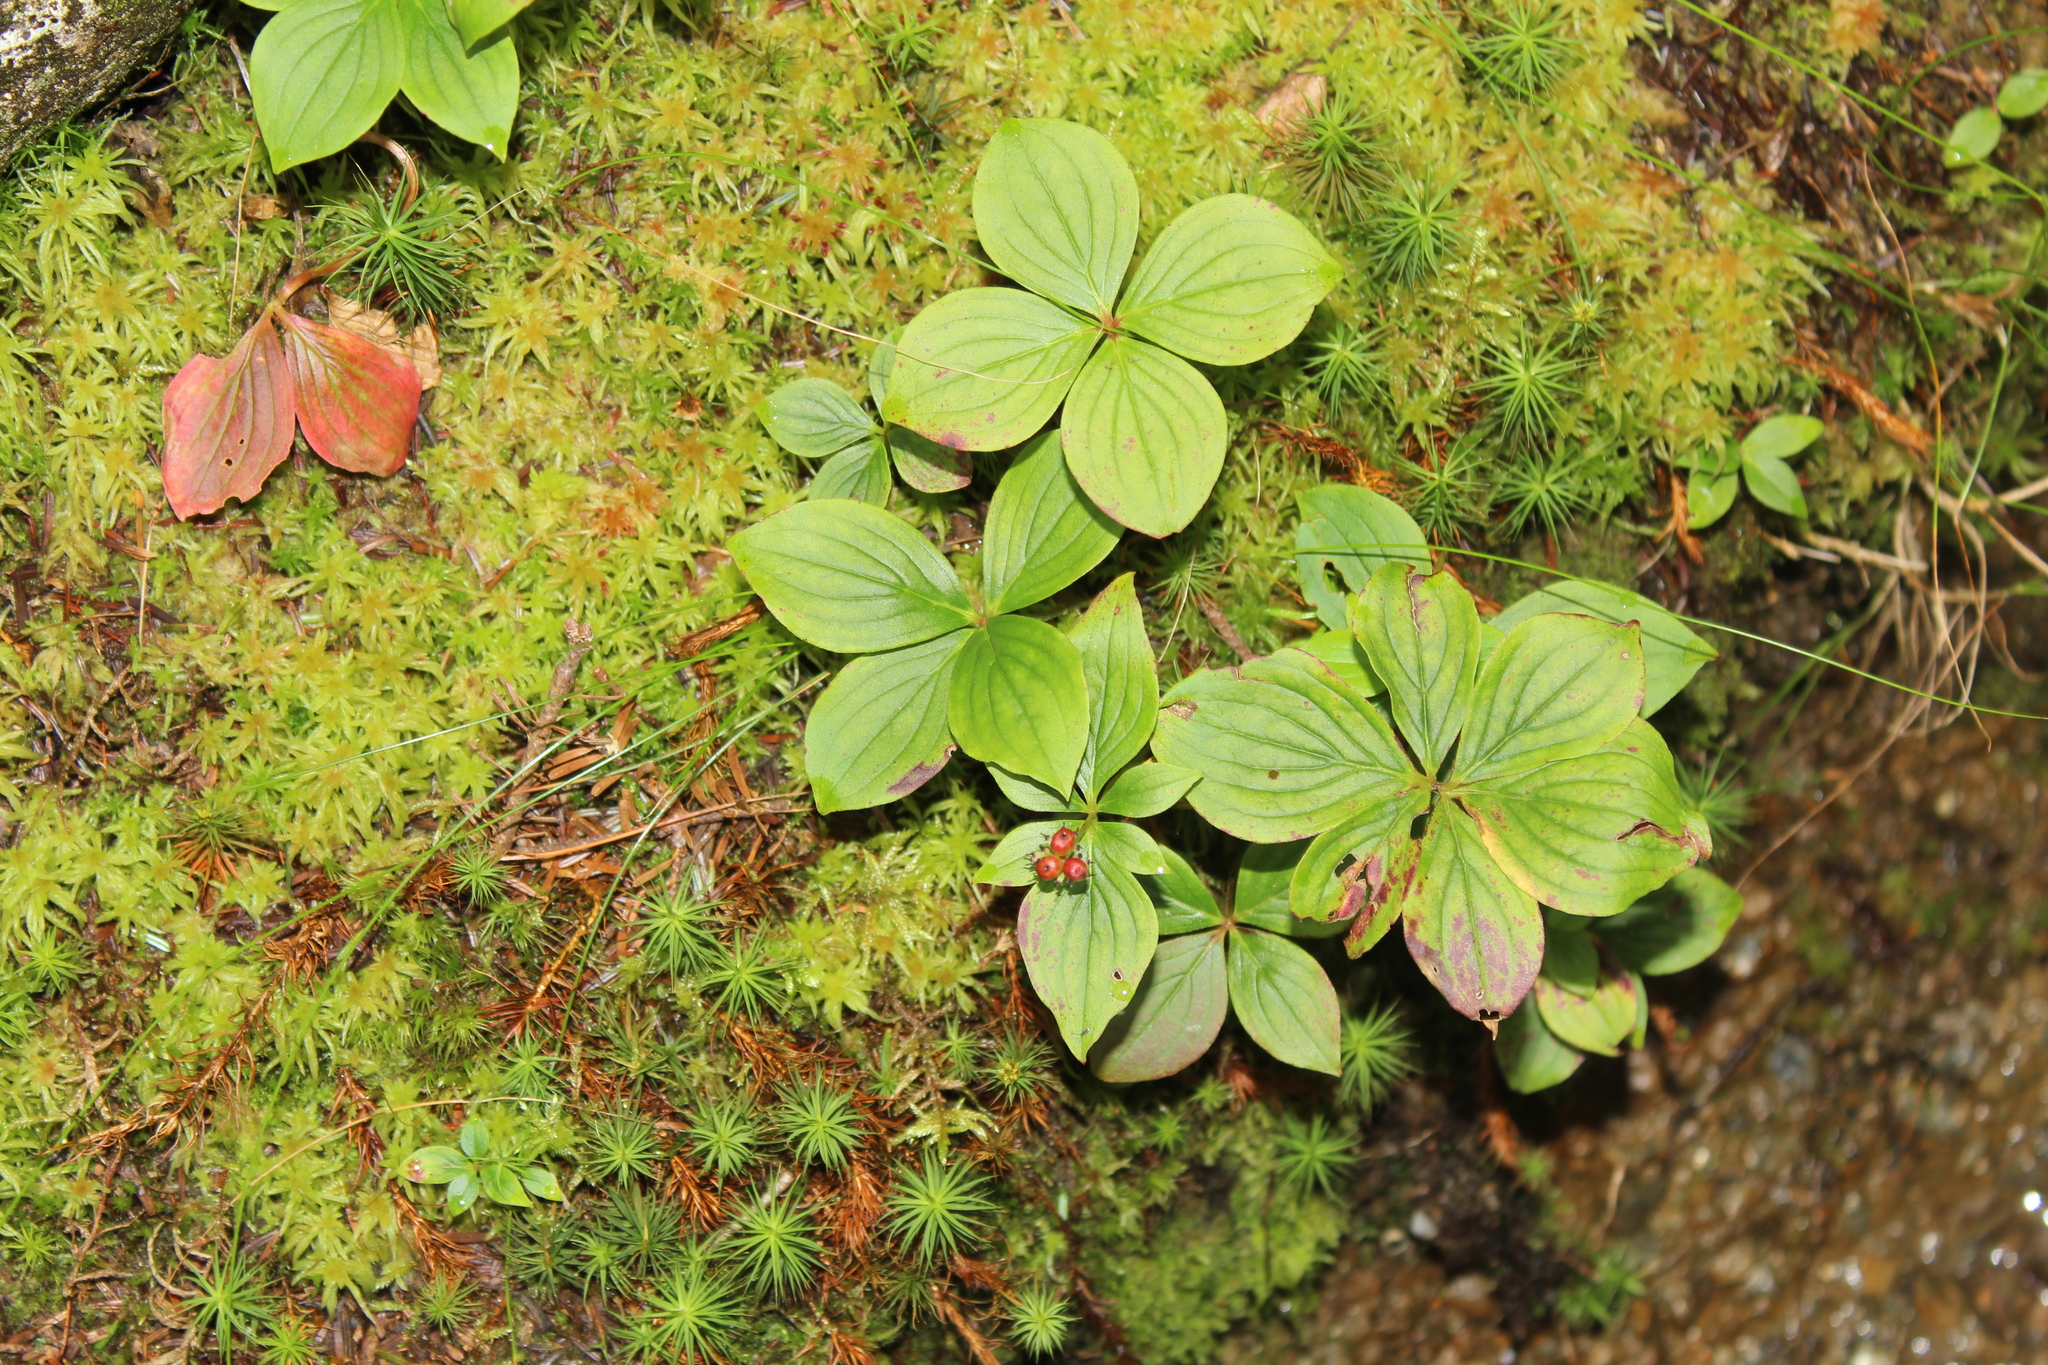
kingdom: Plantae
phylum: Tracheophyta
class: Magnoliopsida
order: Cornales
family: Cornaceae
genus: Cornus
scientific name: Cornus canadensis
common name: Creeping dogwood
